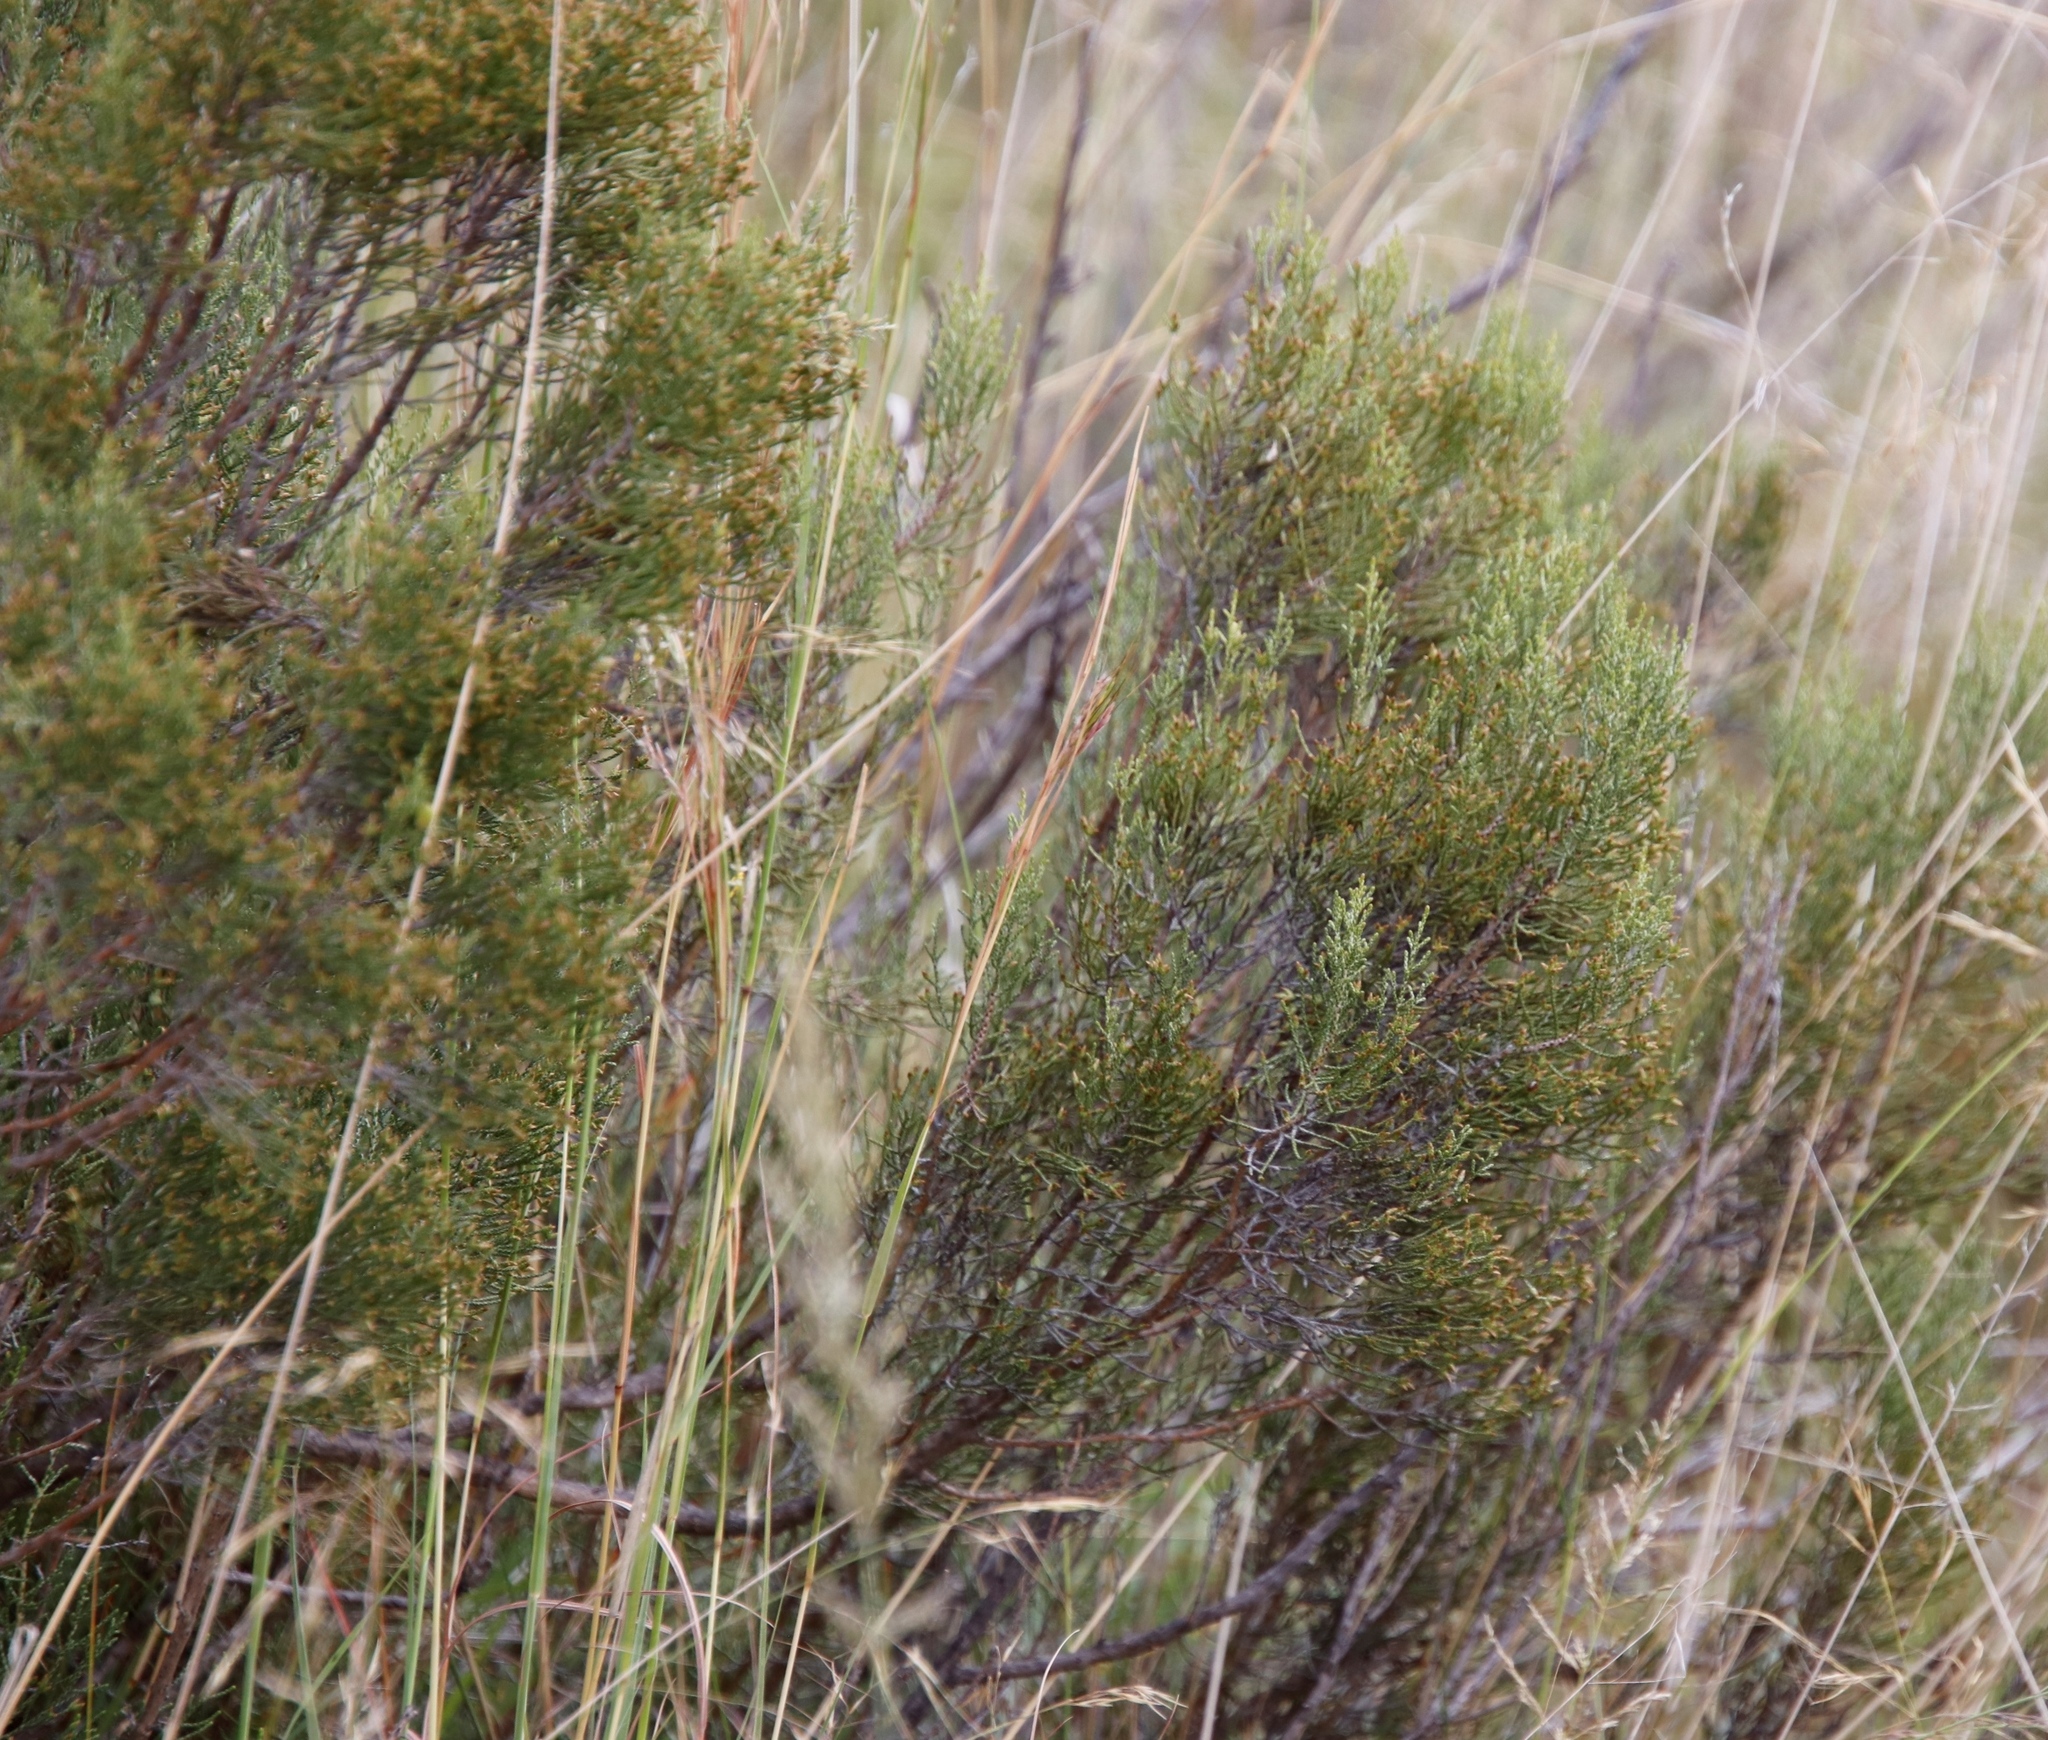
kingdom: Plantae
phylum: Tracheophyta
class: Magnoliopsida
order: Asterales
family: Asteraceae
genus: Dicerothamnus
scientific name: Dicerothamnus rhinocerotis
